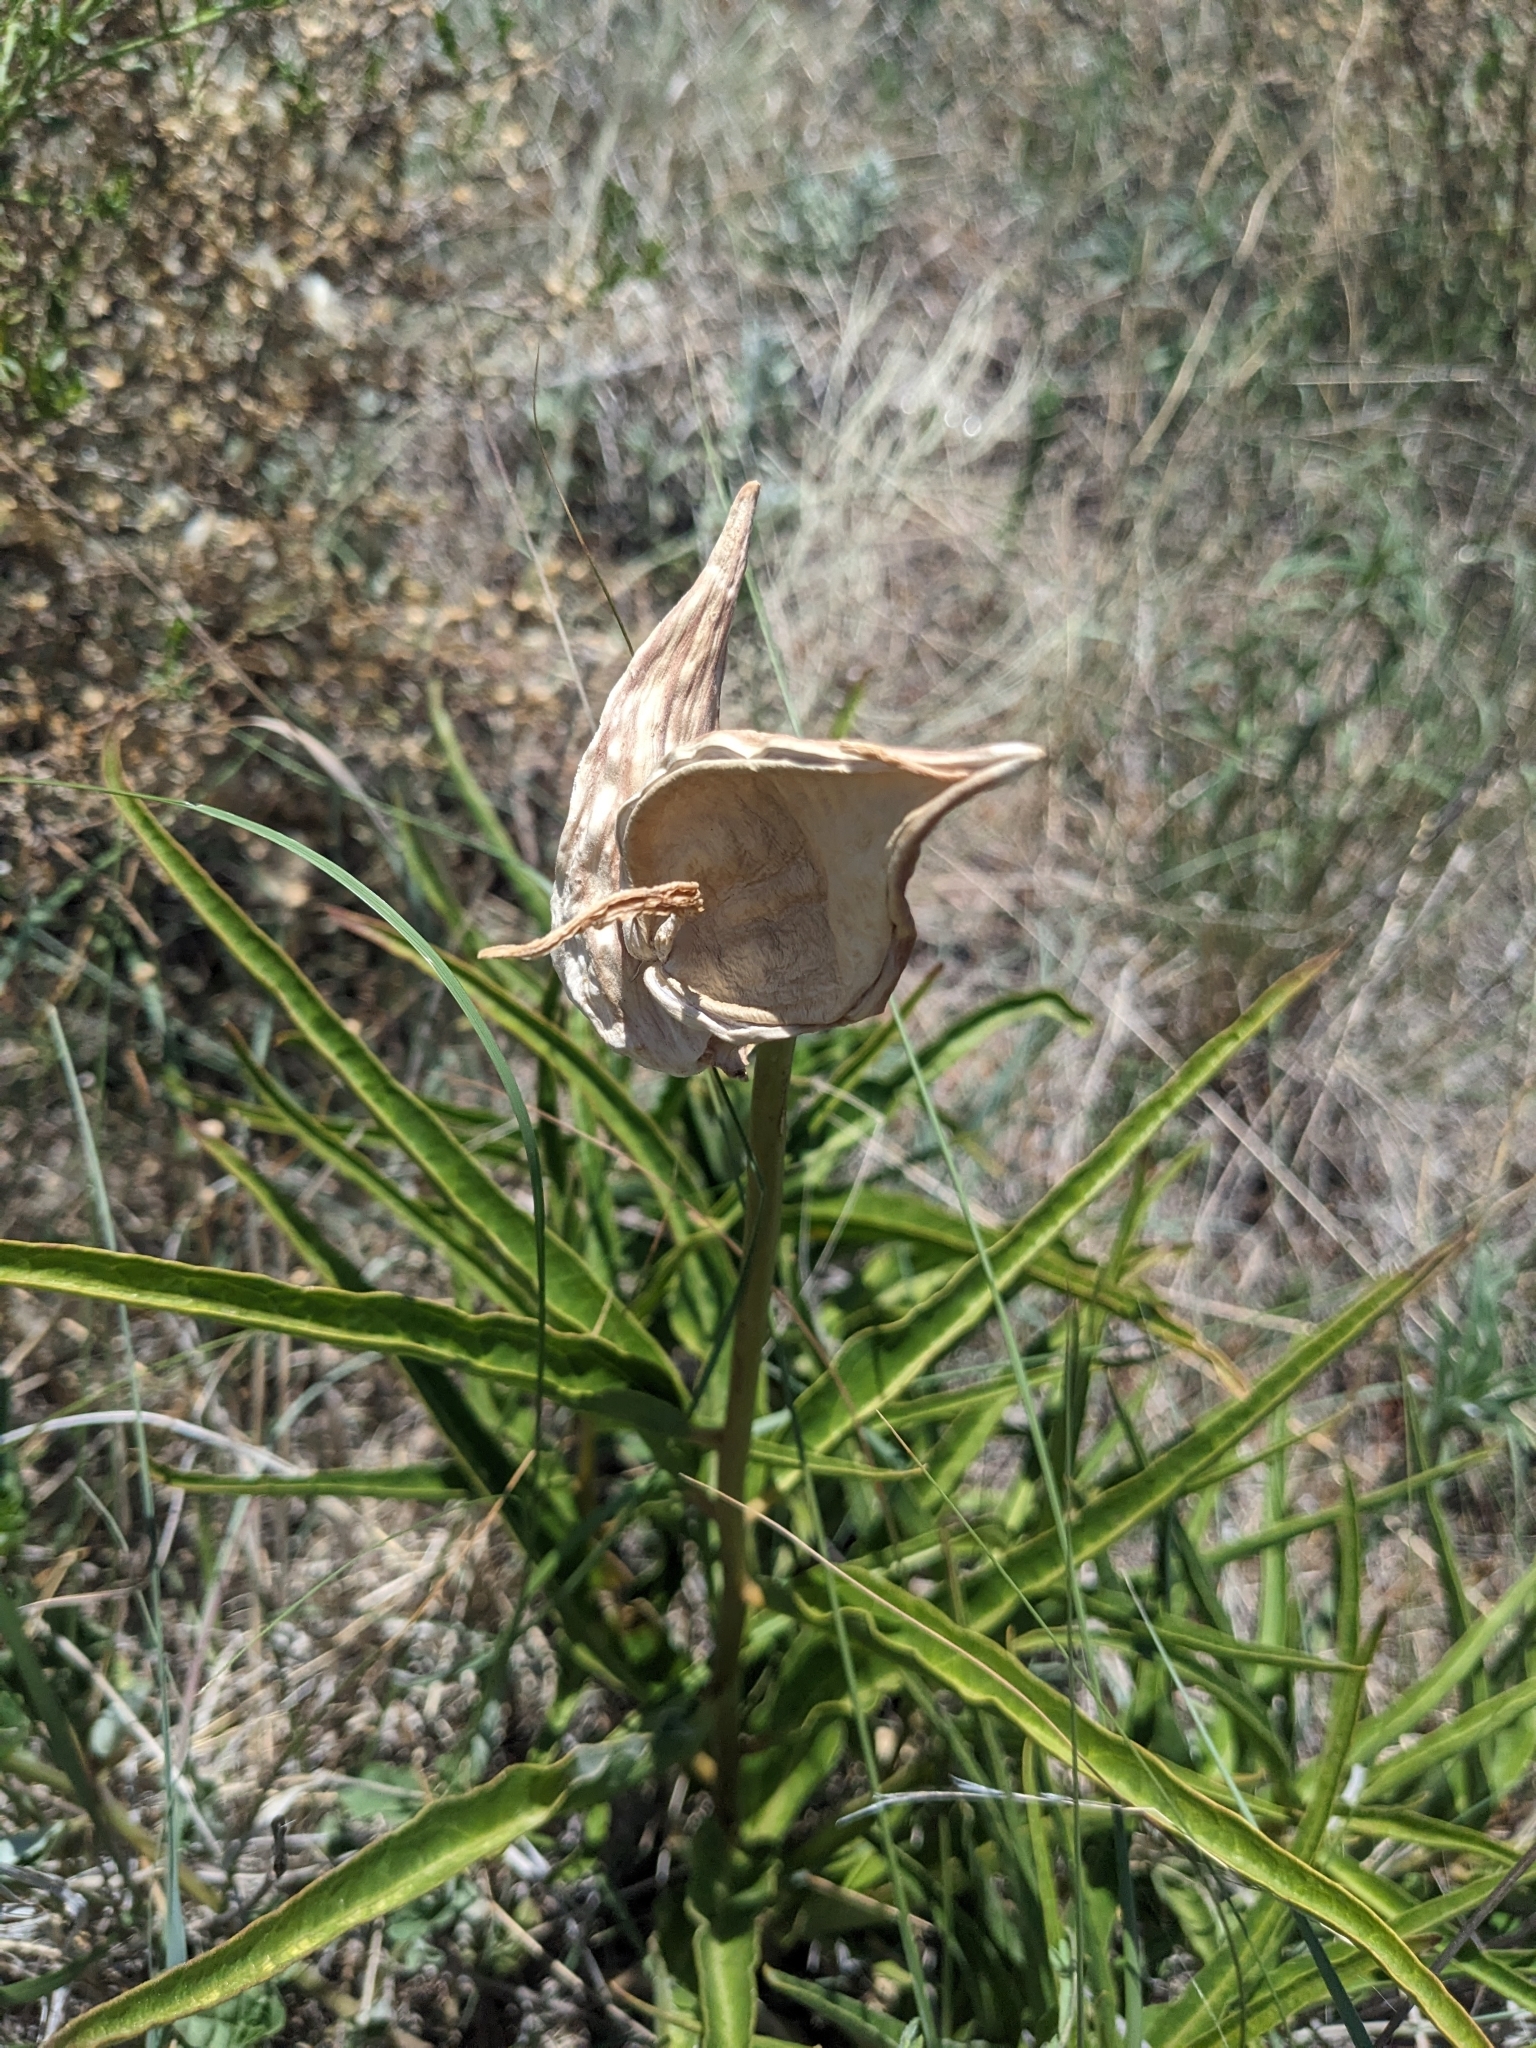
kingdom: Plantae
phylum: Tracheophyta
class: Magnoliopsida
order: Gentianales
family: Apocynaceae
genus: Asclepias
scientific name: Asclepias asperula
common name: Antelope horns
